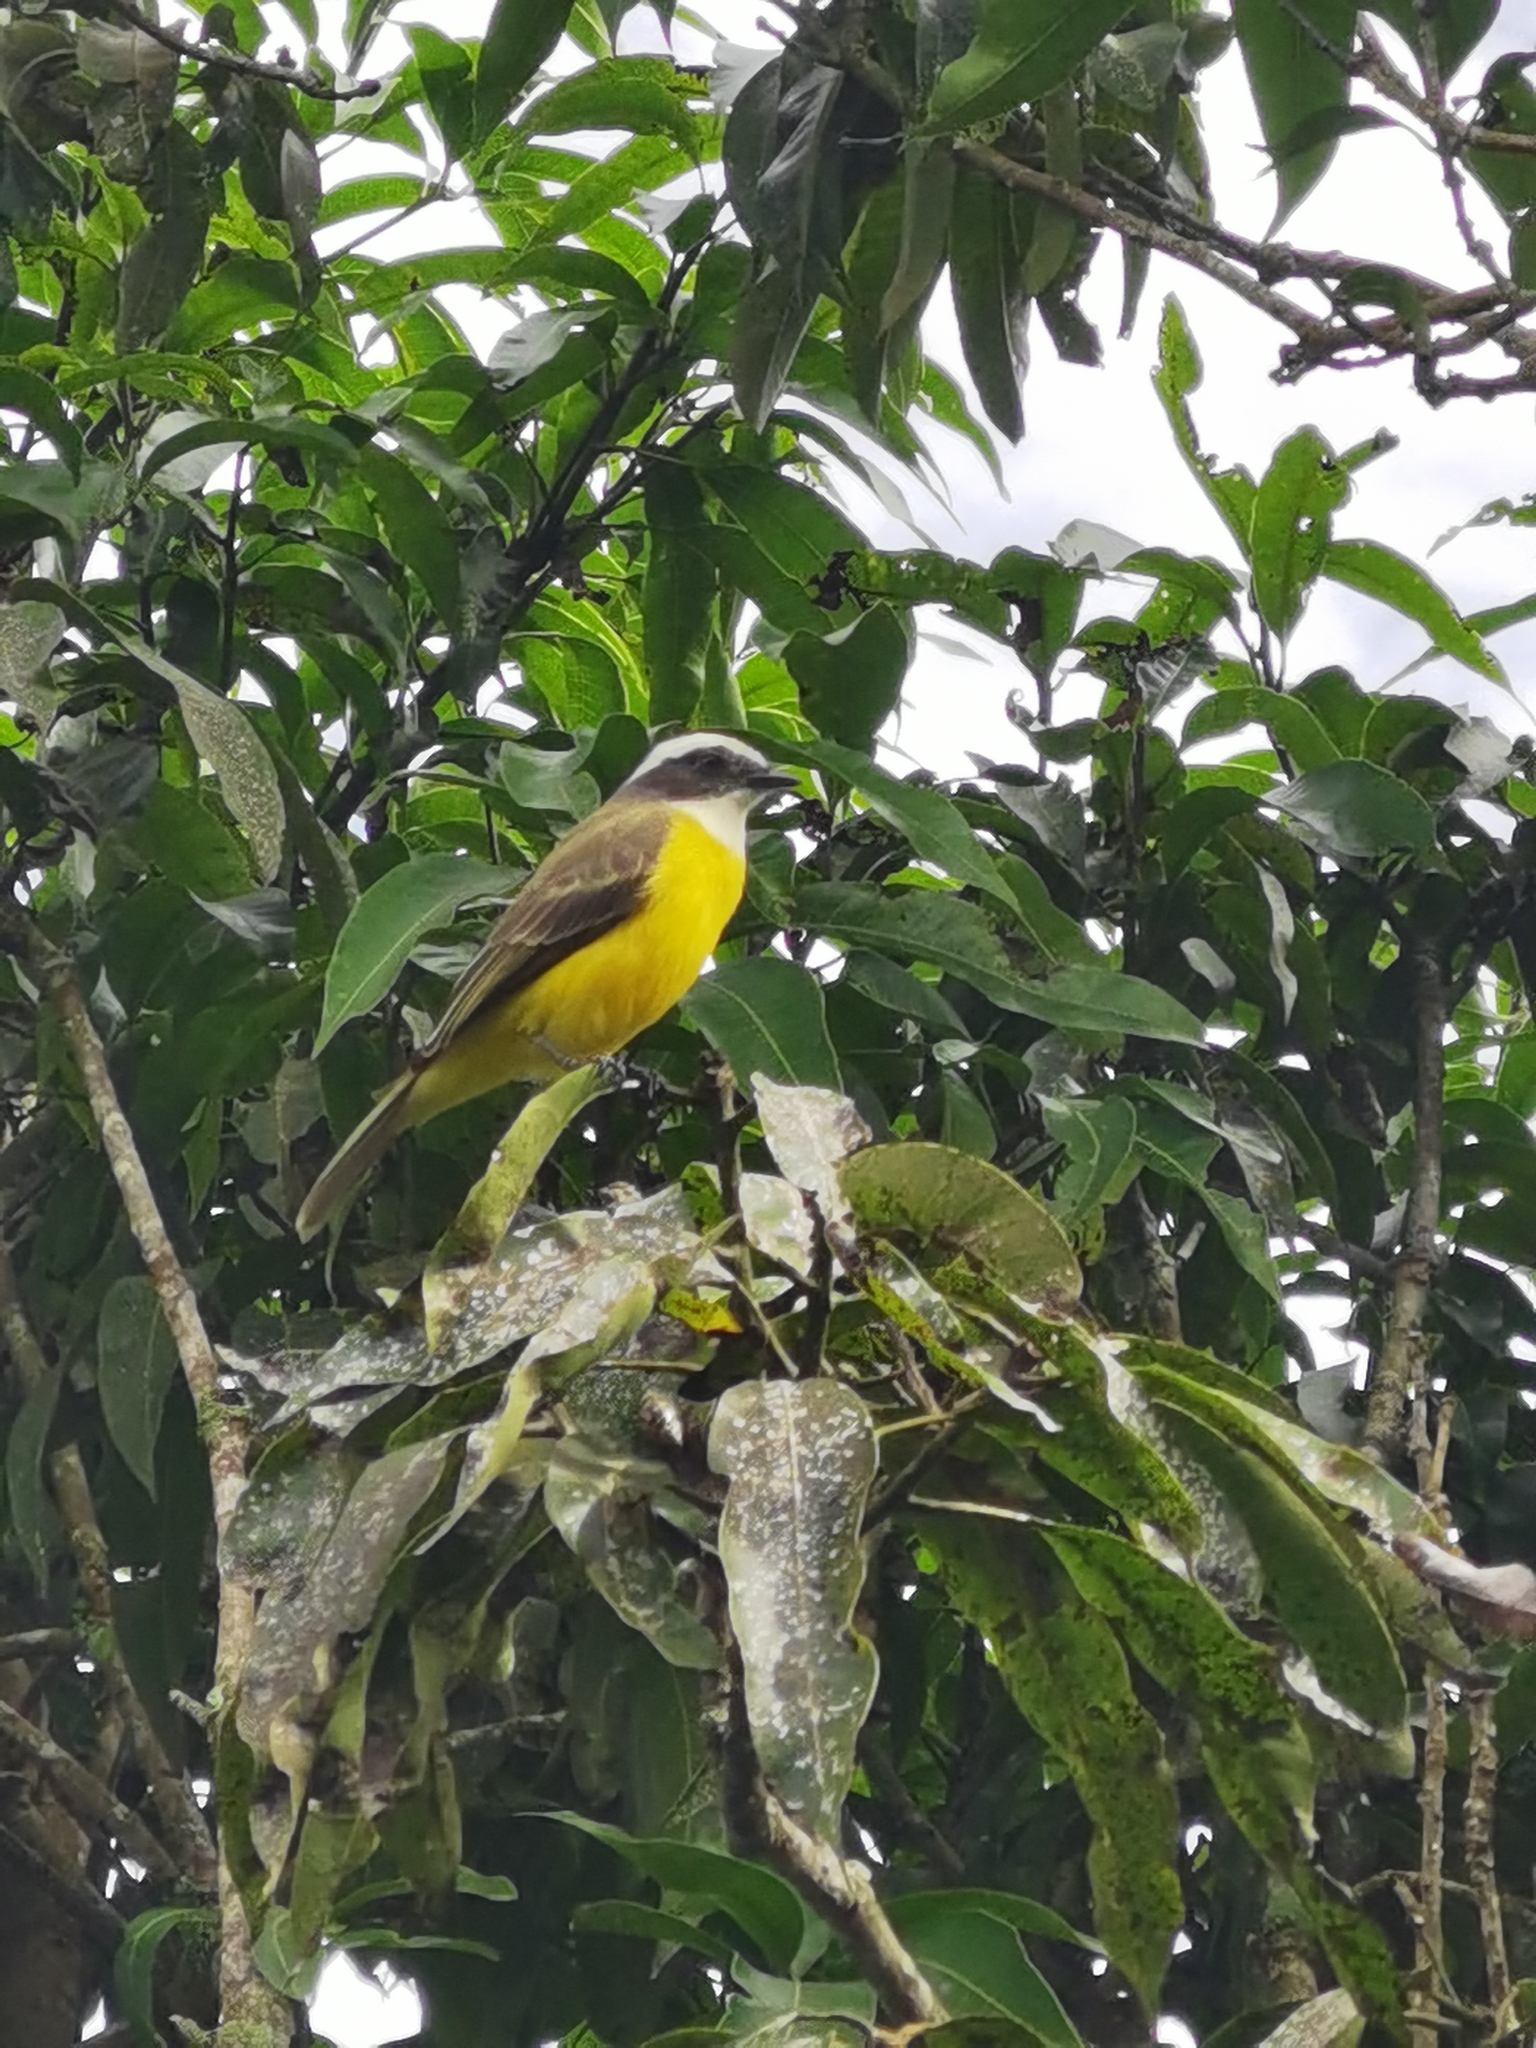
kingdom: Animalia
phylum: Chordata
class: Aves
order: Passeriformes
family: Tyrannidae
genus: Myiozetetes
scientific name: Myiozetetes similis
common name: Social flycatcher
